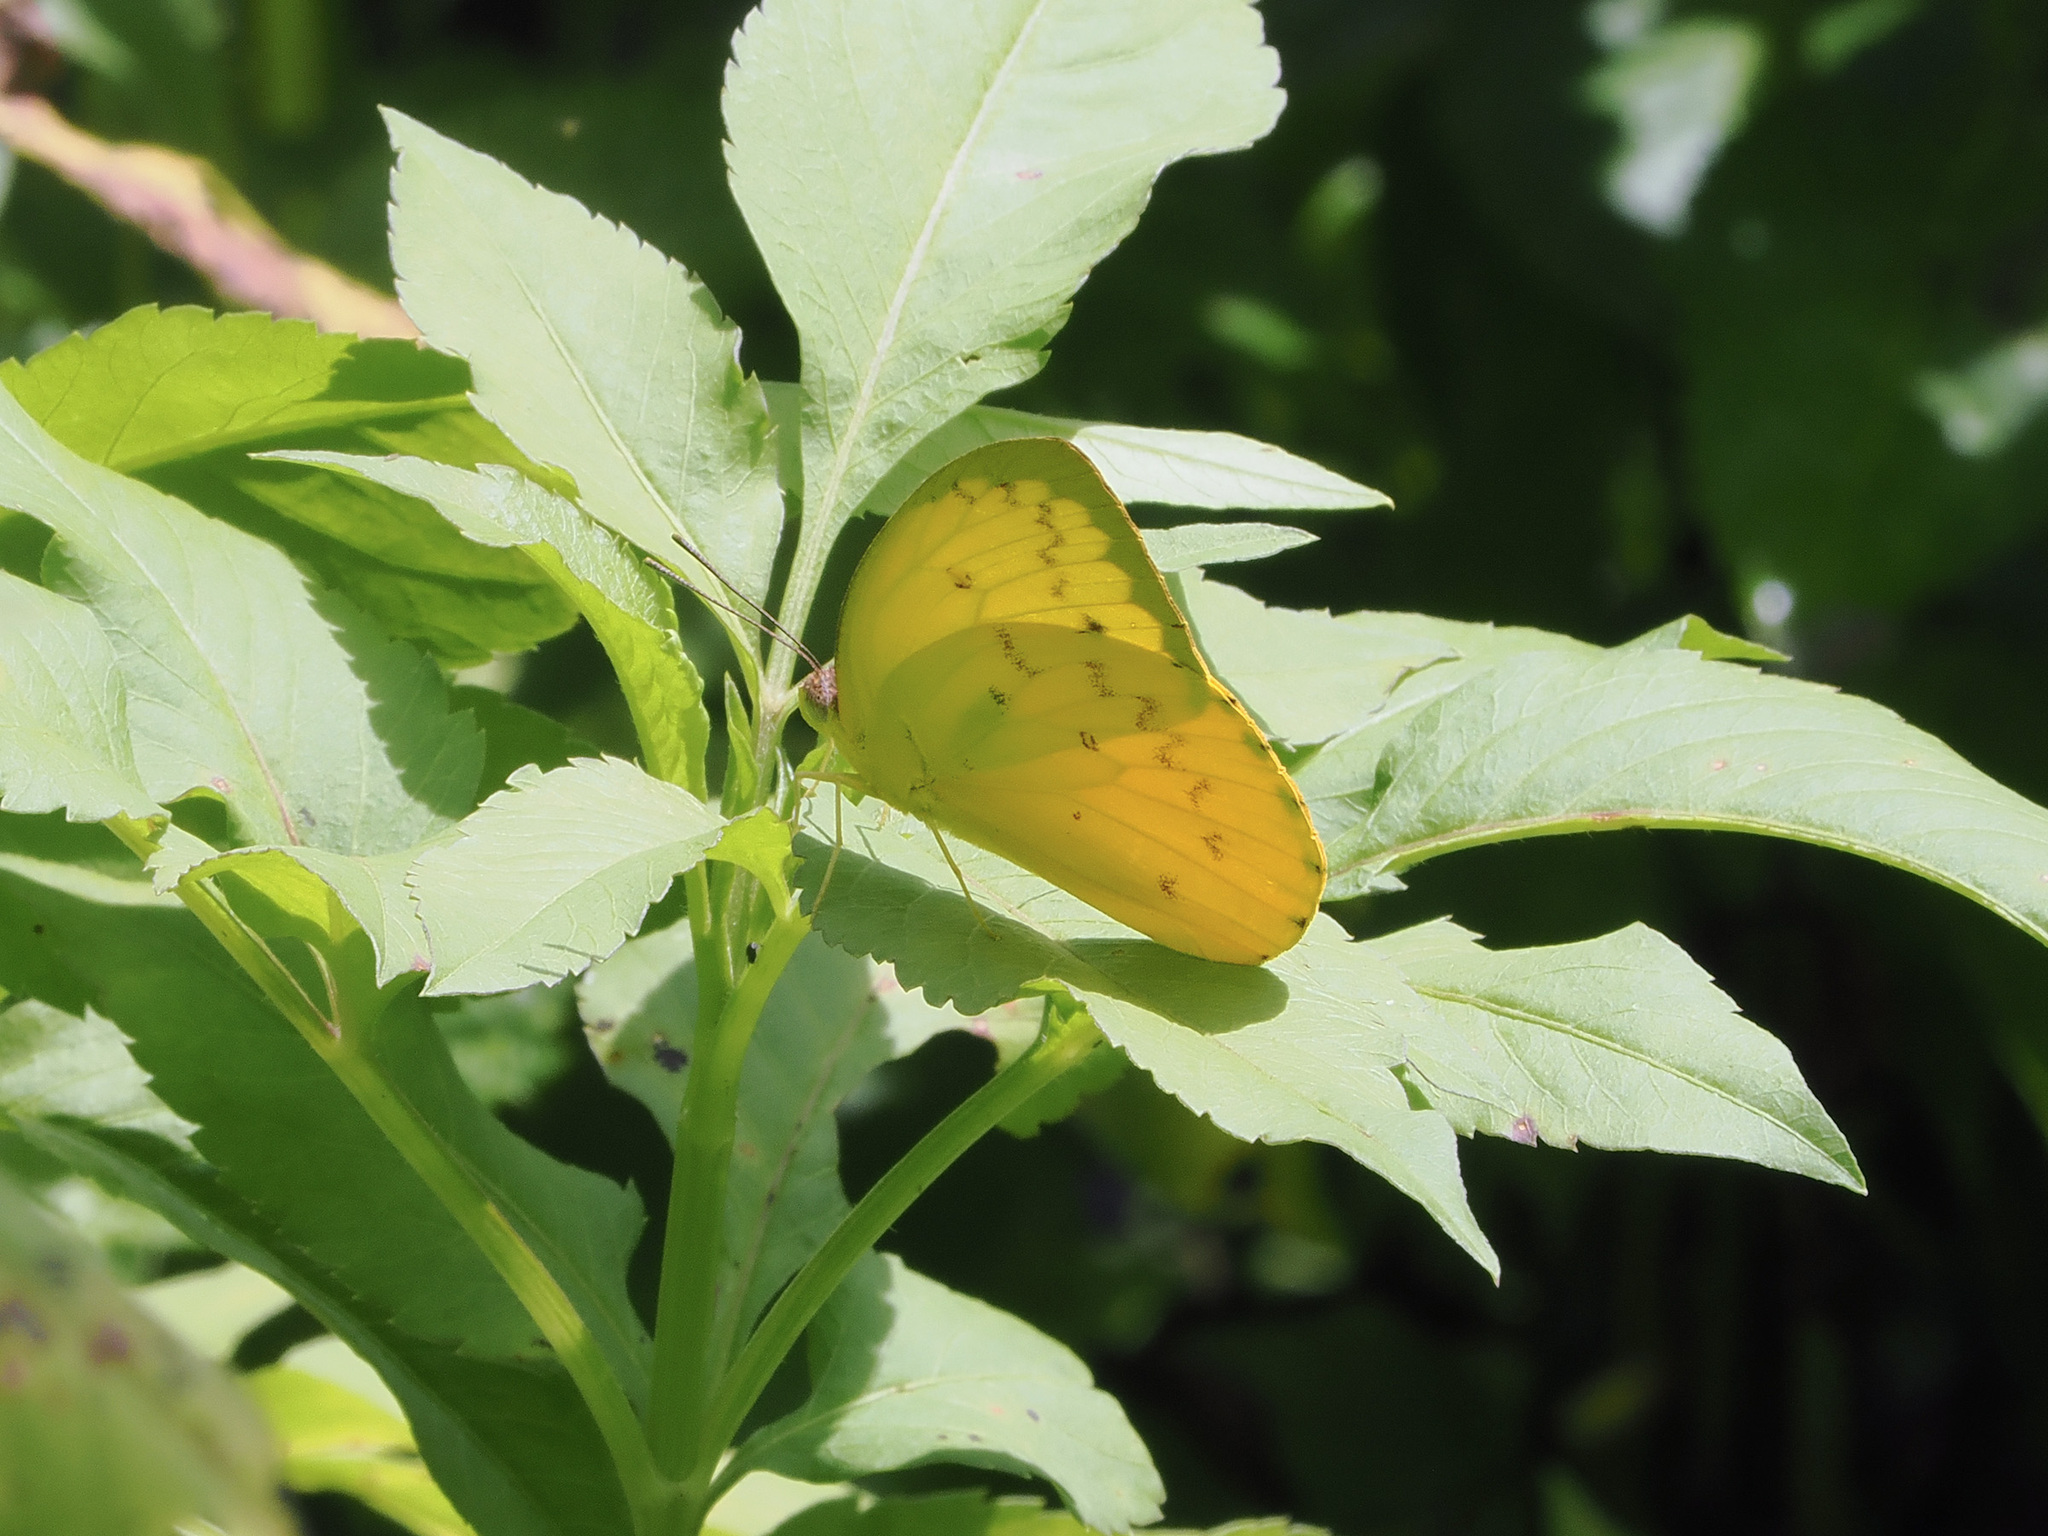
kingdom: Animalia
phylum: Arthropoda
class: Insecta
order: Lepidoptera
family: Pieridae
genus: Catopsilia
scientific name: Catopsilia scylla
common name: Orange emigrant
